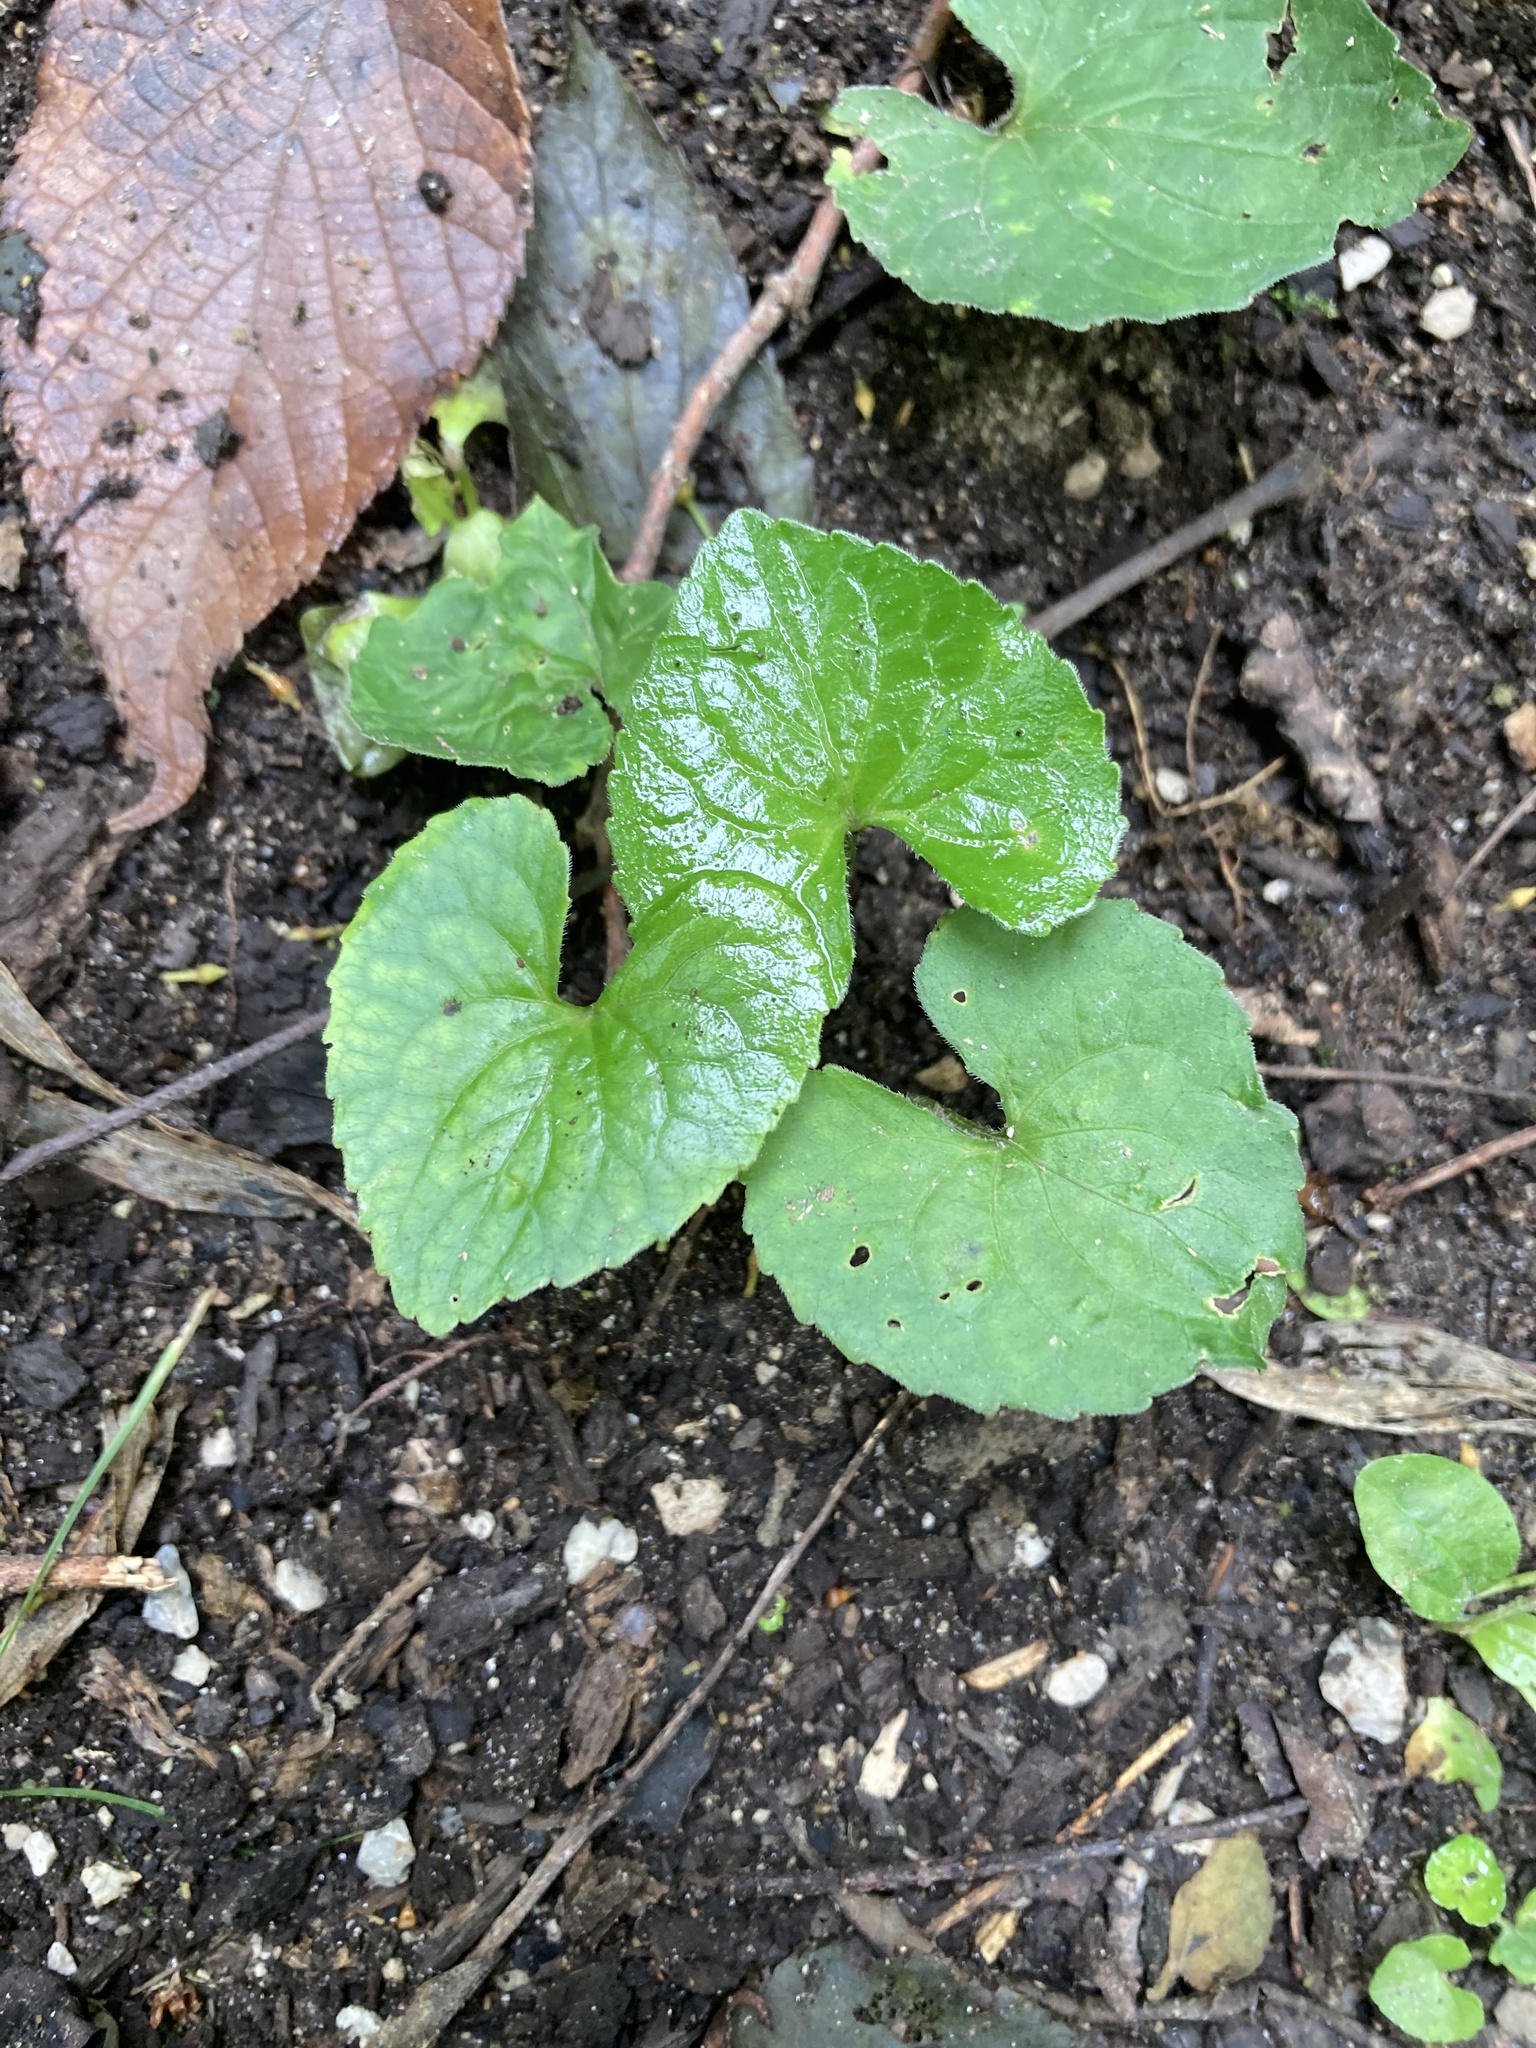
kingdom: Plantae
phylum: Tracheophyta
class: Magnoliopsida
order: Malpighiales
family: Violaceae
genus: Viola
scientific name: Viola sororia
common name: Dooryard violet
